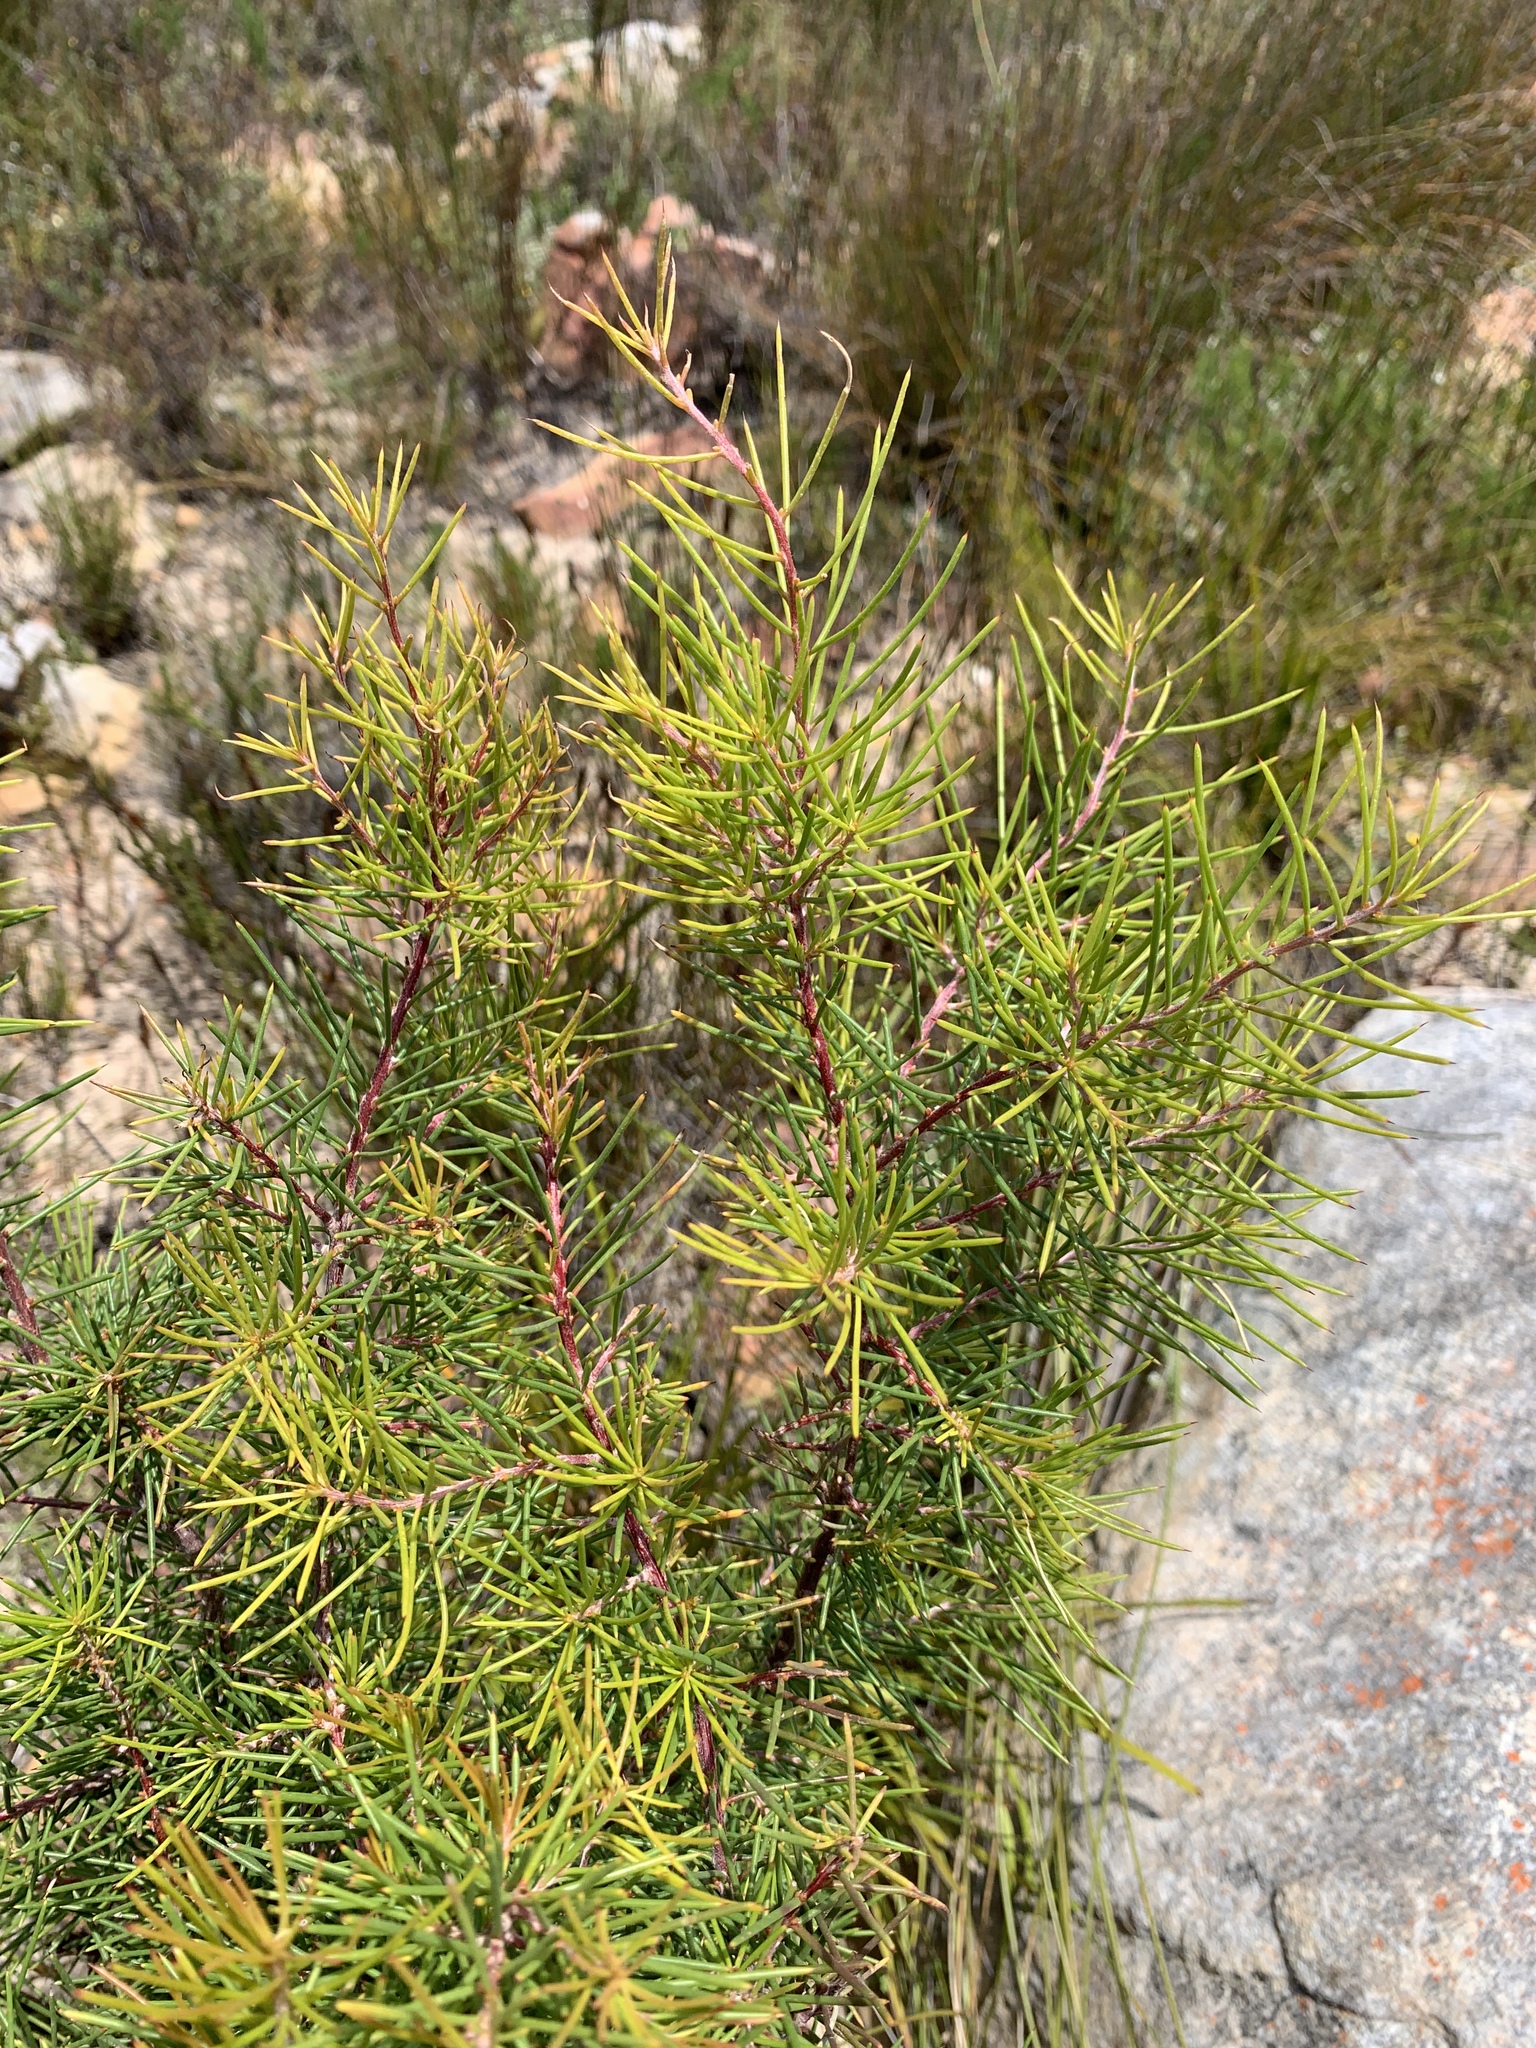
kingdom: Plantae
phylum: Tracheophyta
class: Magnoliopsida
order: Proteales
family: Proteaceae
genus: Hakea
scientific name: Hakea sericea
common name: Needle bush
